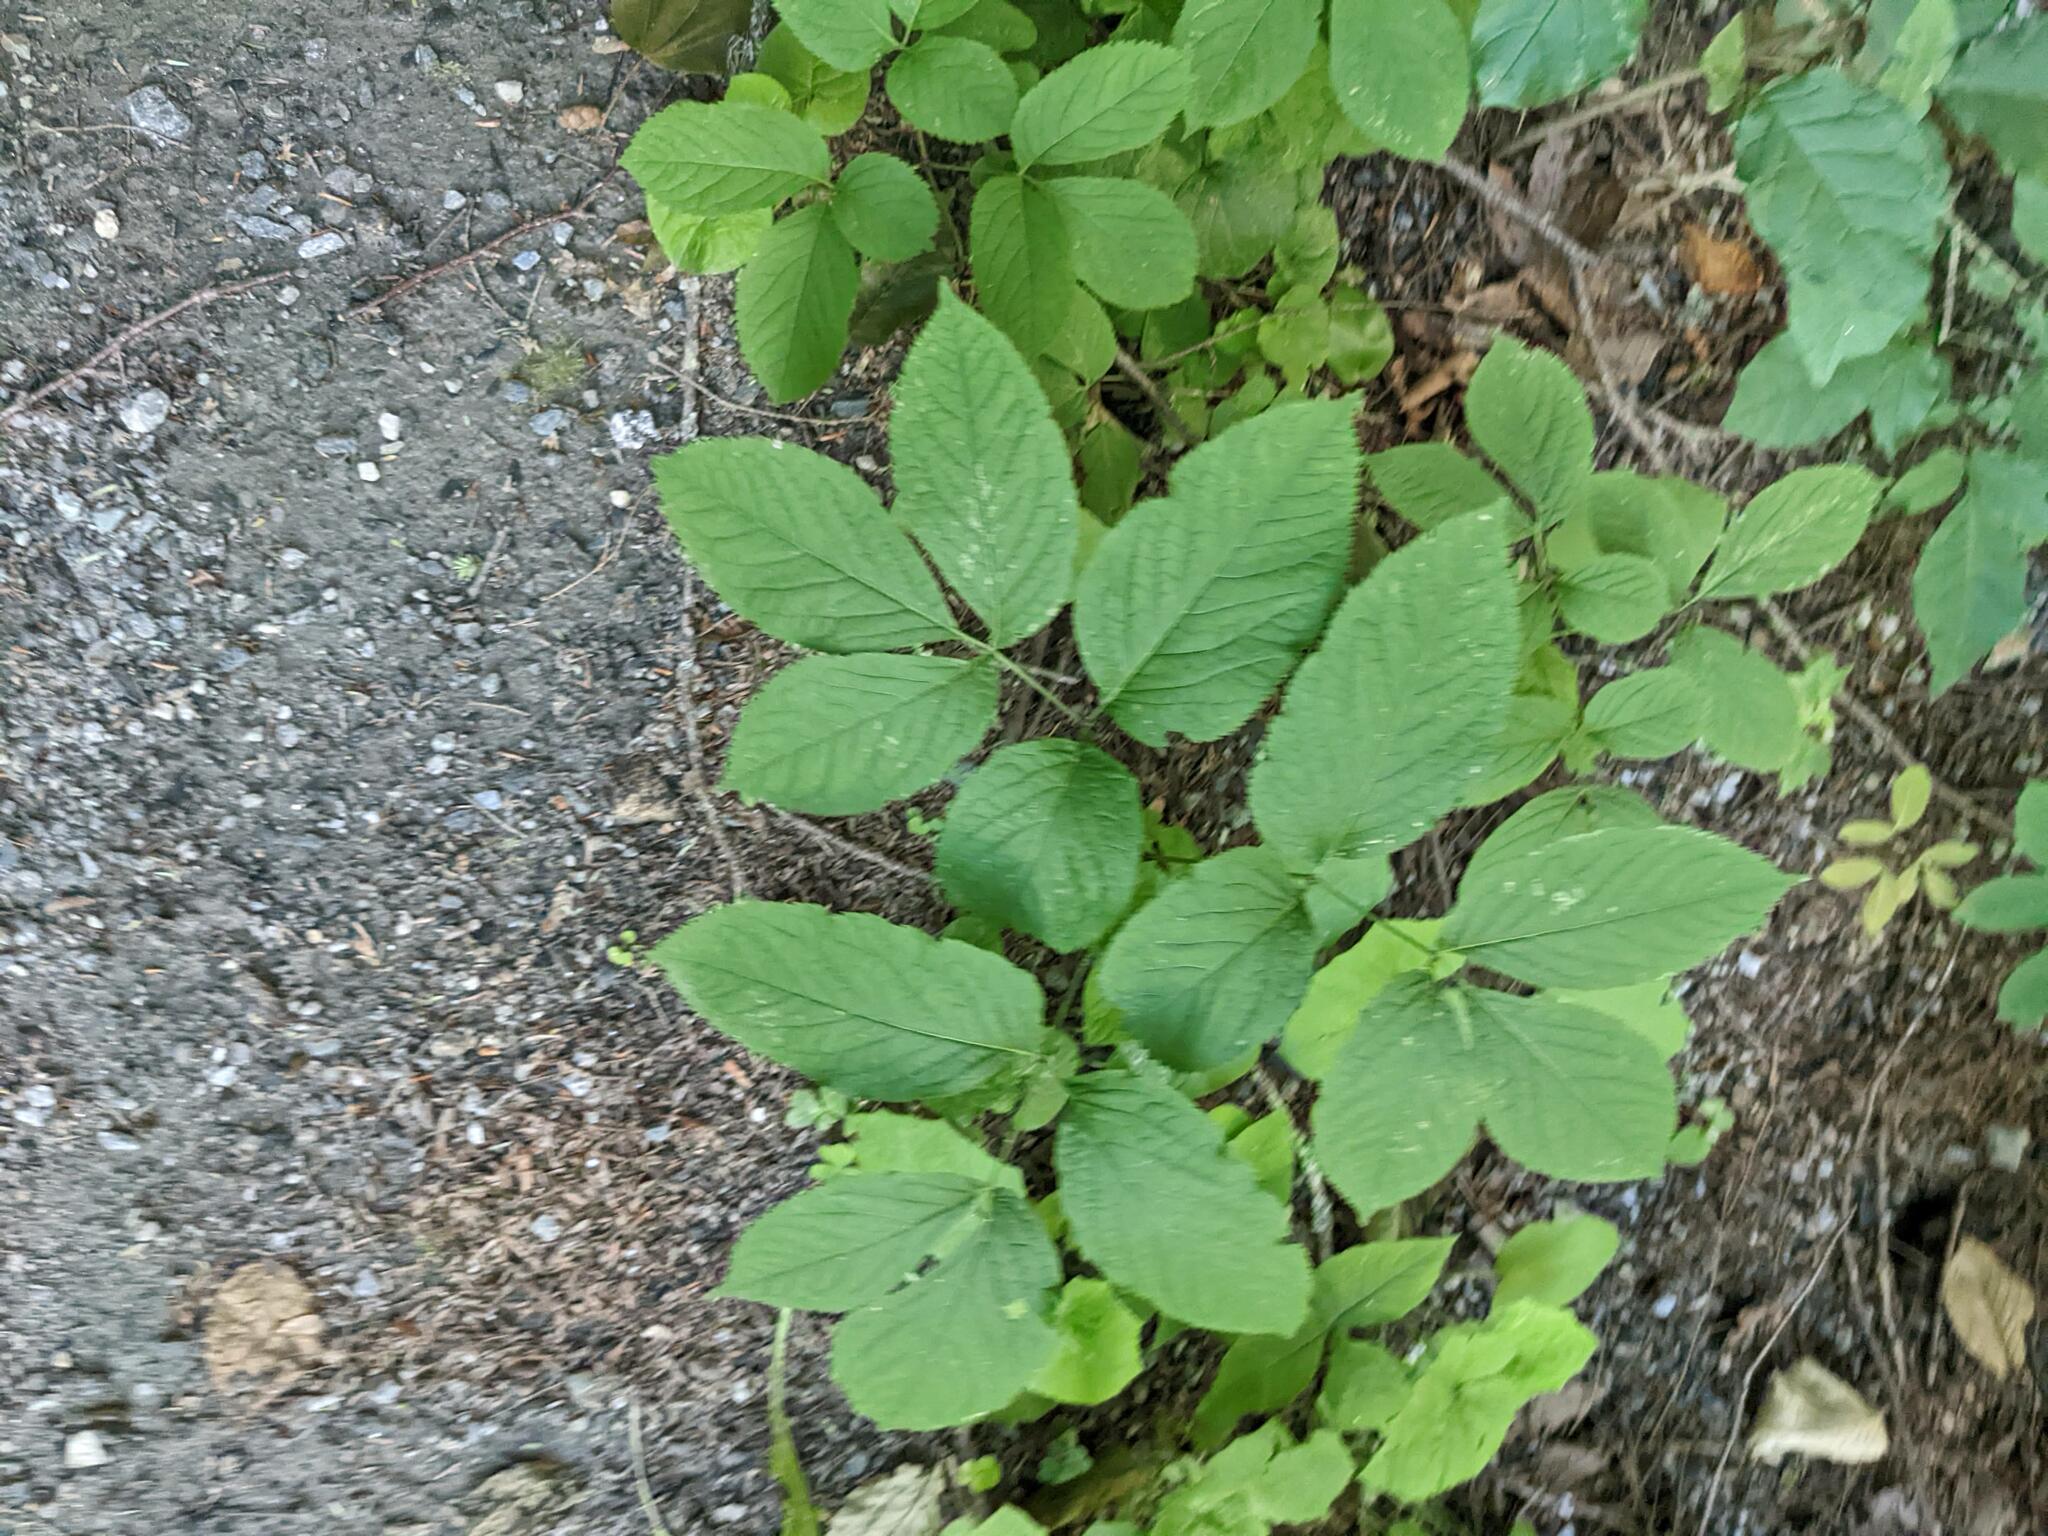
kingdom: Plantae
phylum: Tracheophyta
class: Magnoliopsida
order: Apiales
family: Araliaceae
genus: Aralia
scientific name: Aralia nudicaulis
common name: Wild sarsaparilla
